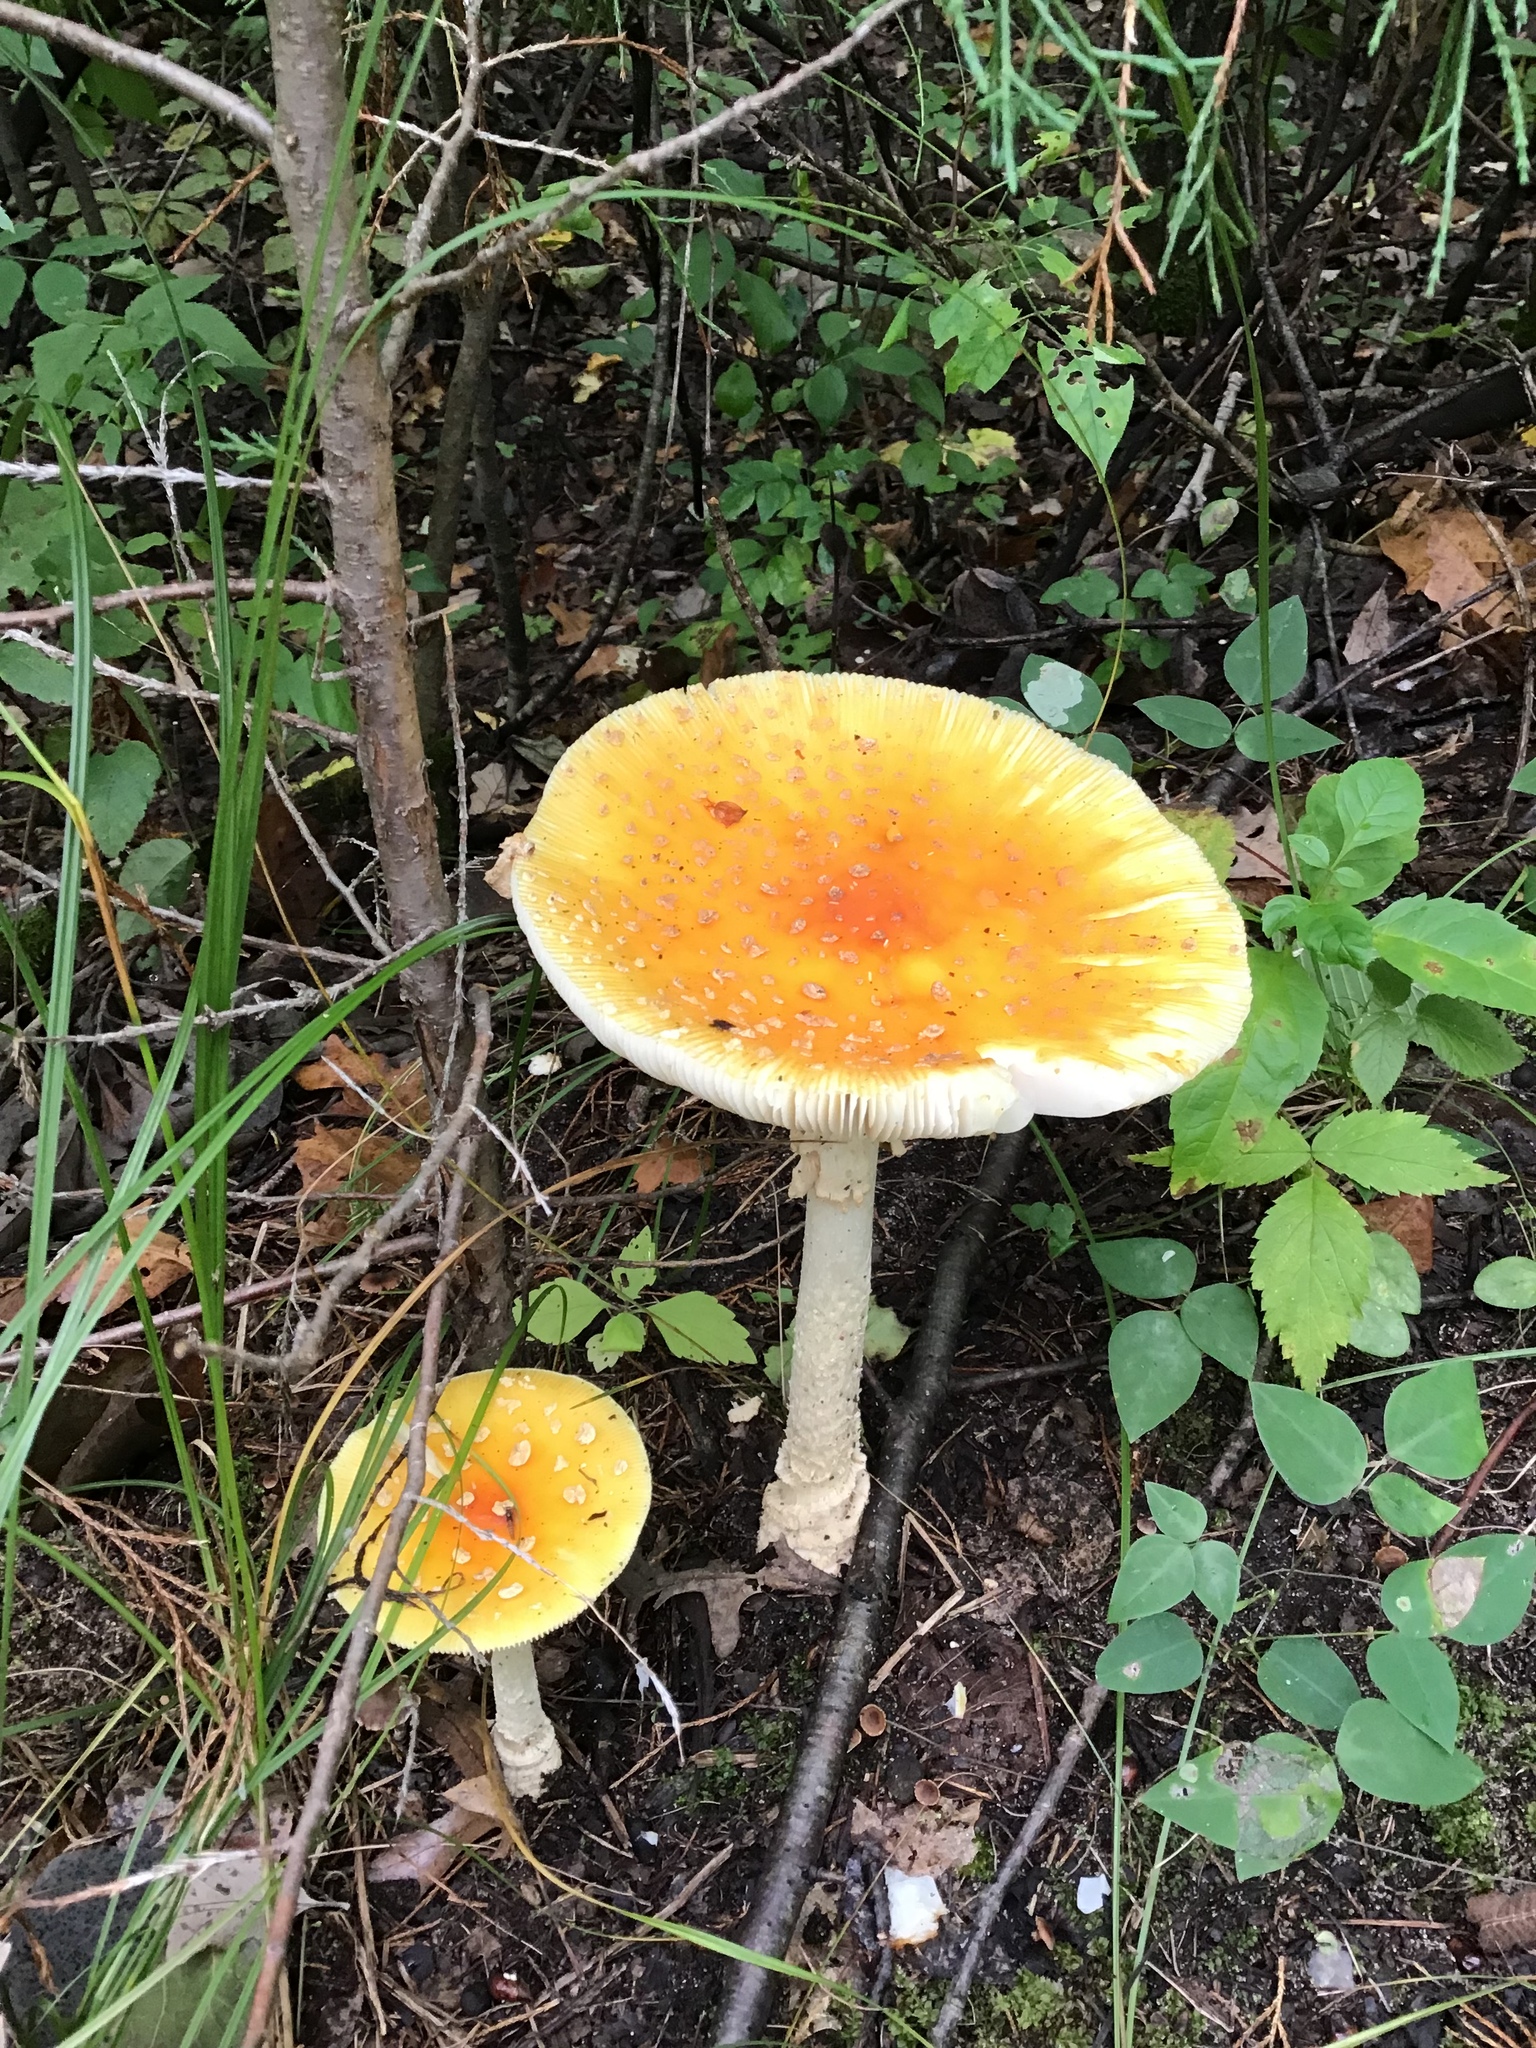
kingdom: Fungi
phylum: Basidiomycota
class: Agaricomycetes
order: Agaricales
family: Amanitaceae
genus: Amanita
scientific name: Amanita muscaria
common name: Fly agaric
